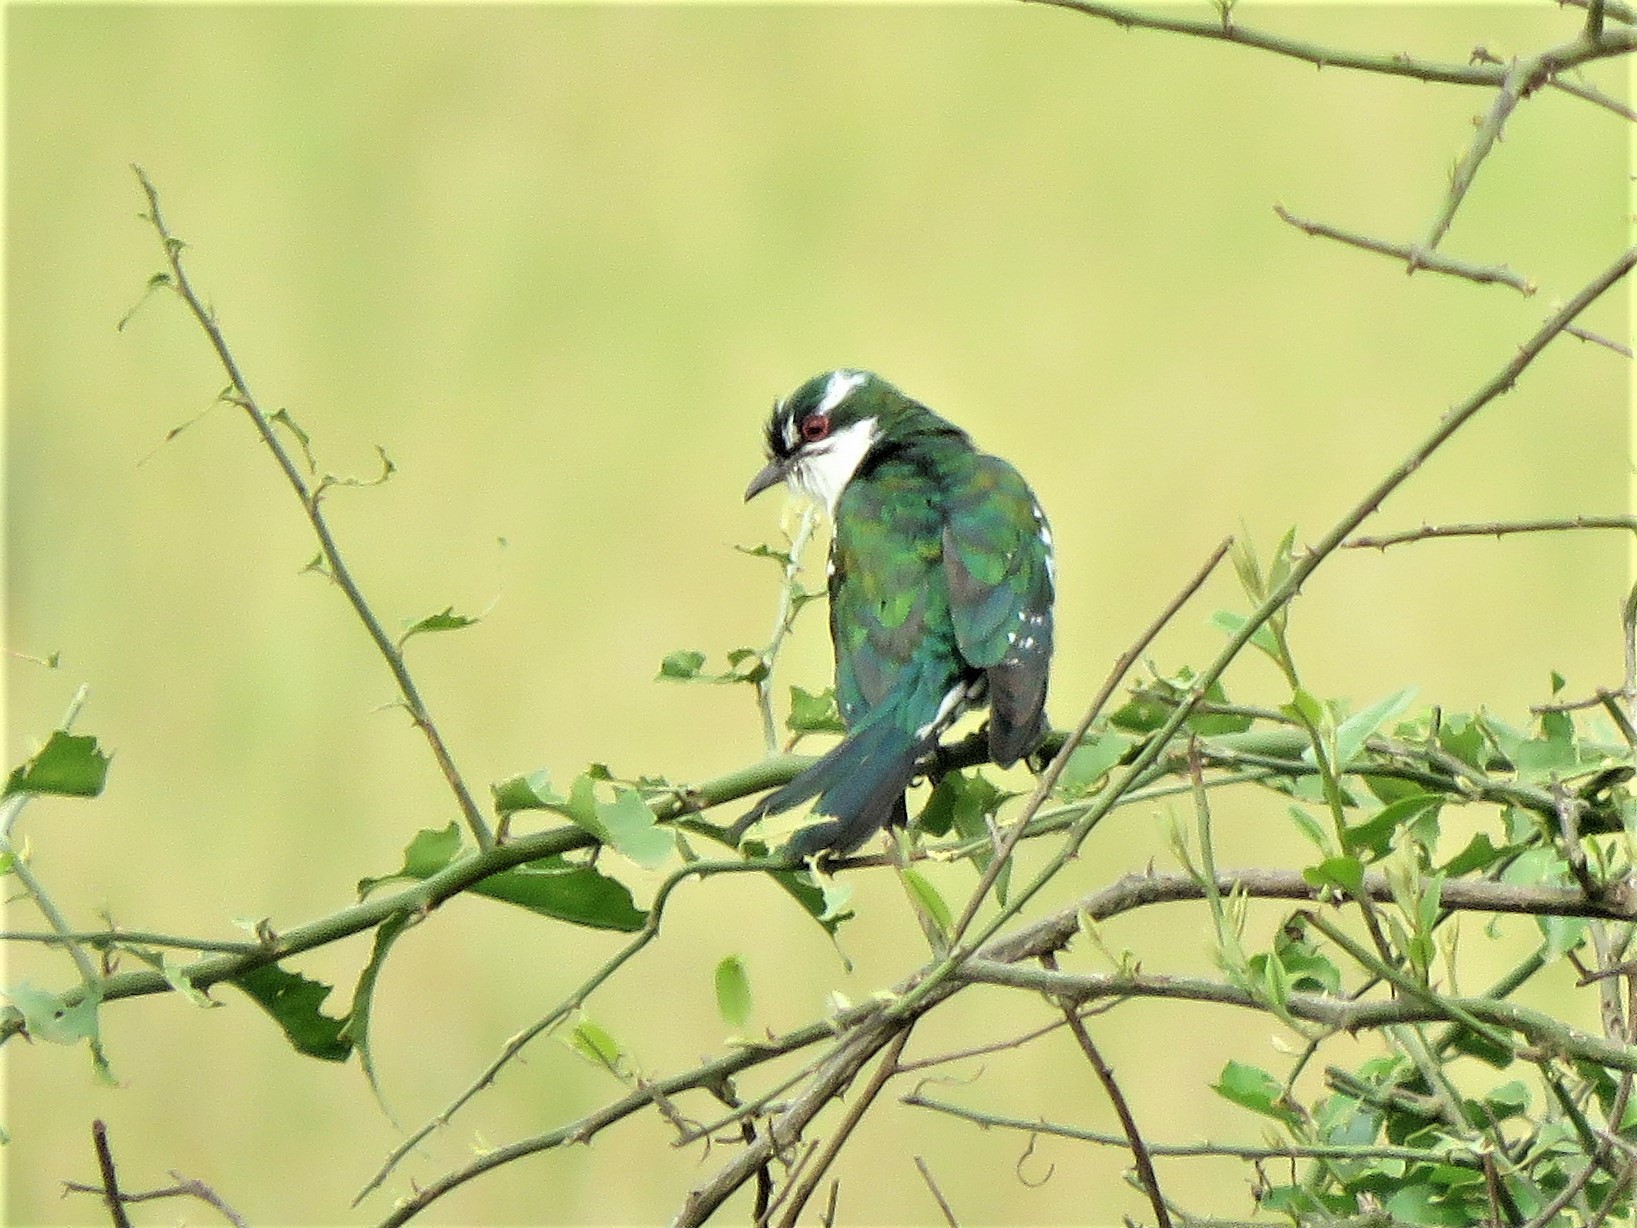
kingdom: Animalia
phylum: Chordata
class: Aves
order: Cuculiformes
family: Cuculidae
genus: Chrysococcyx
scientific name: Chrysococcyx caprius
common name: Diederik cuckoo
